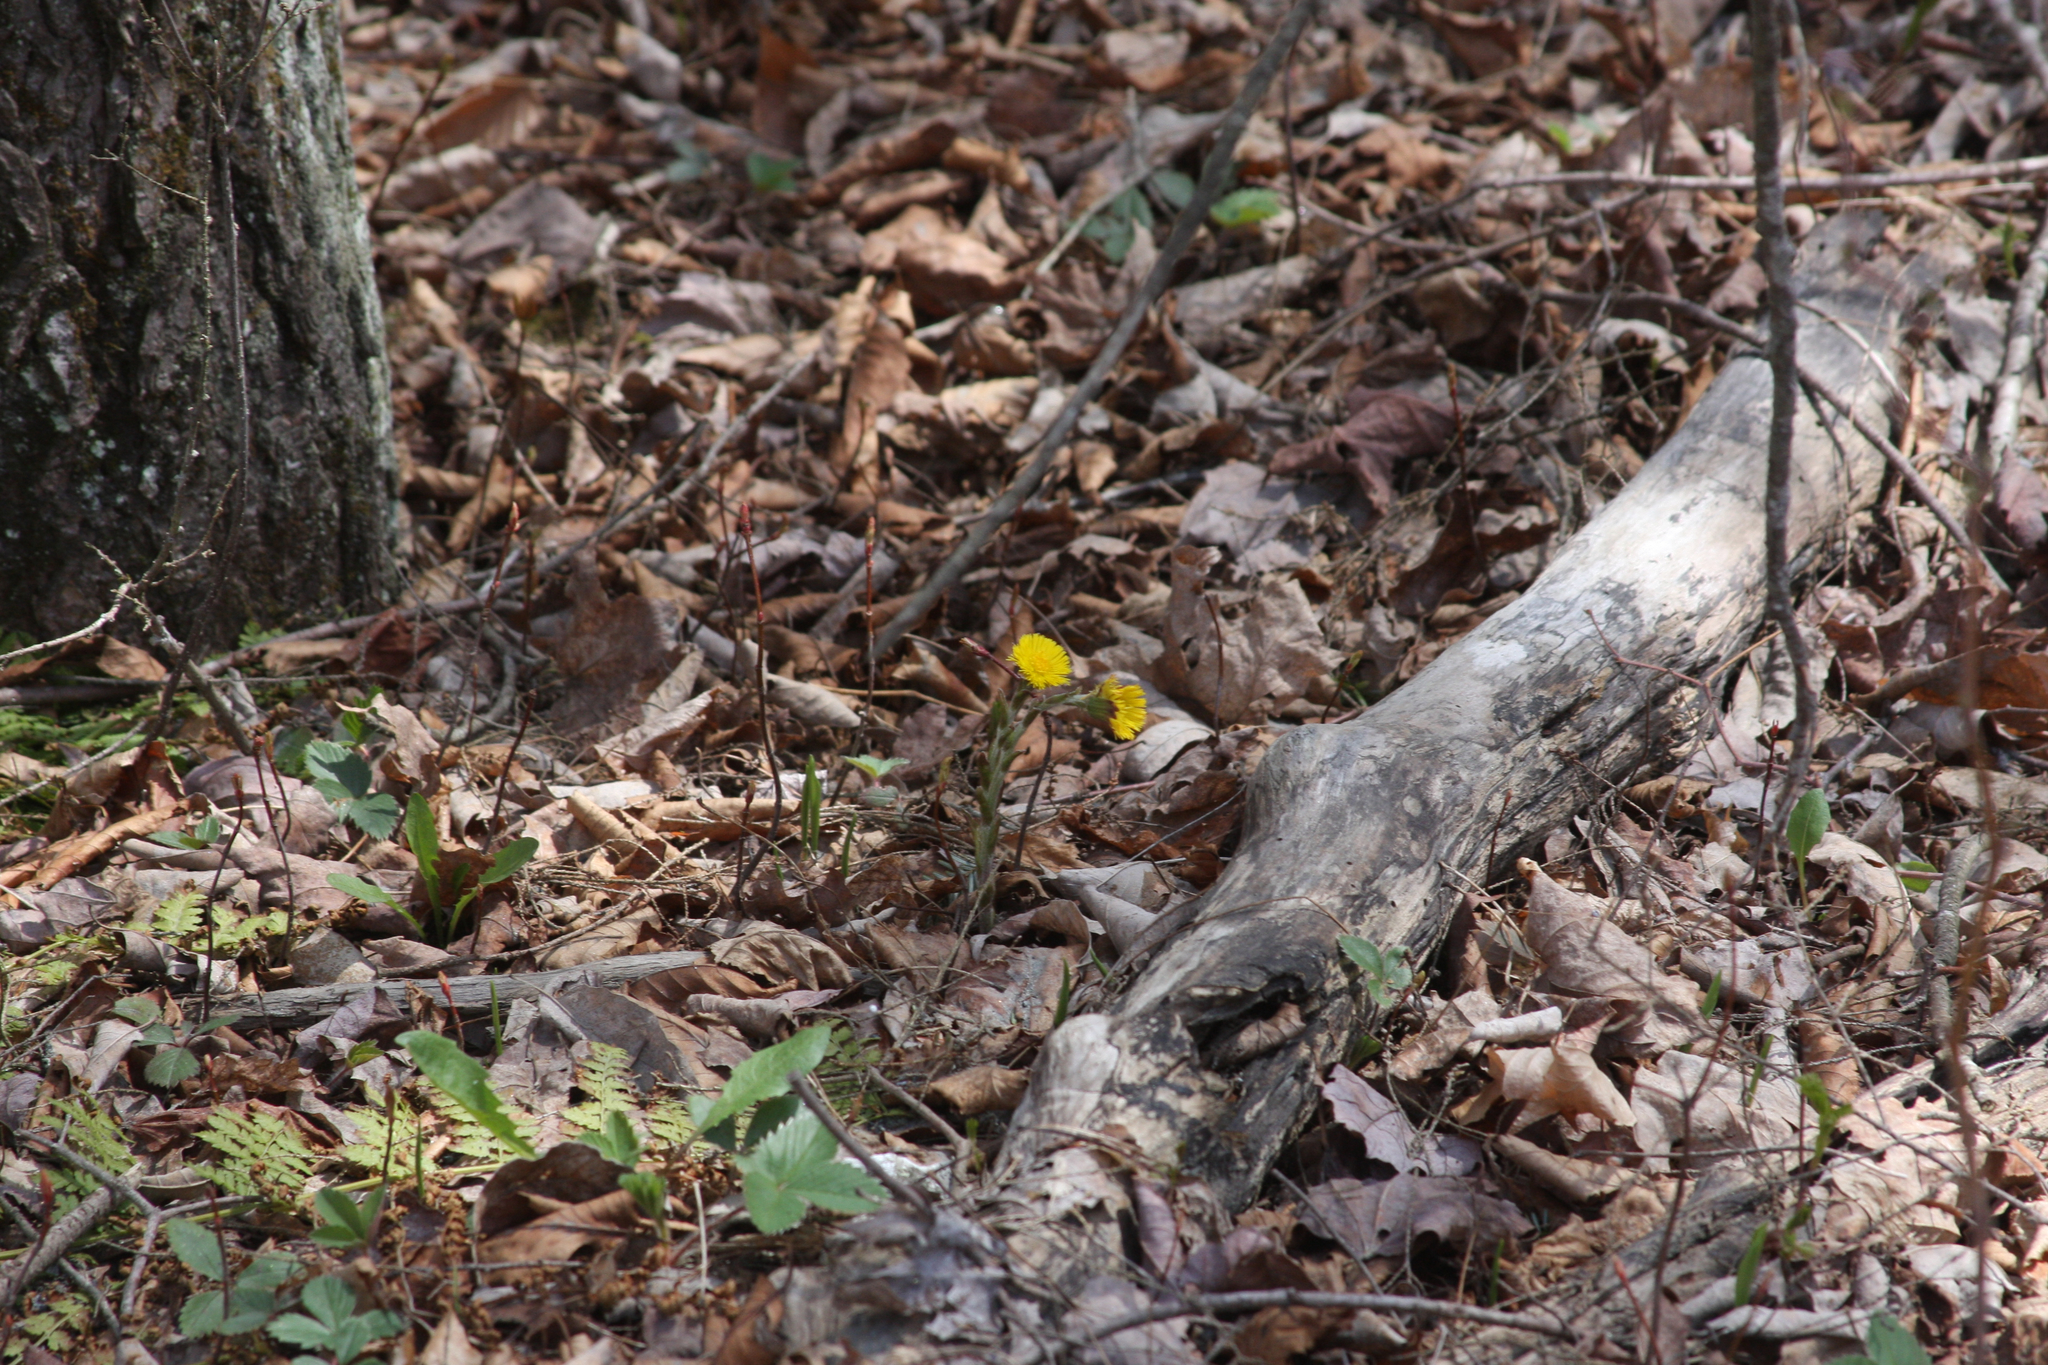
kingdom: Plantae
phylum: Tracheophyta
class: Magnoliopsida
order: Asterales
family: Asteraceae
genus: Tussilago
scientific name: Tussilago farfara
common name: Coltsfoot
